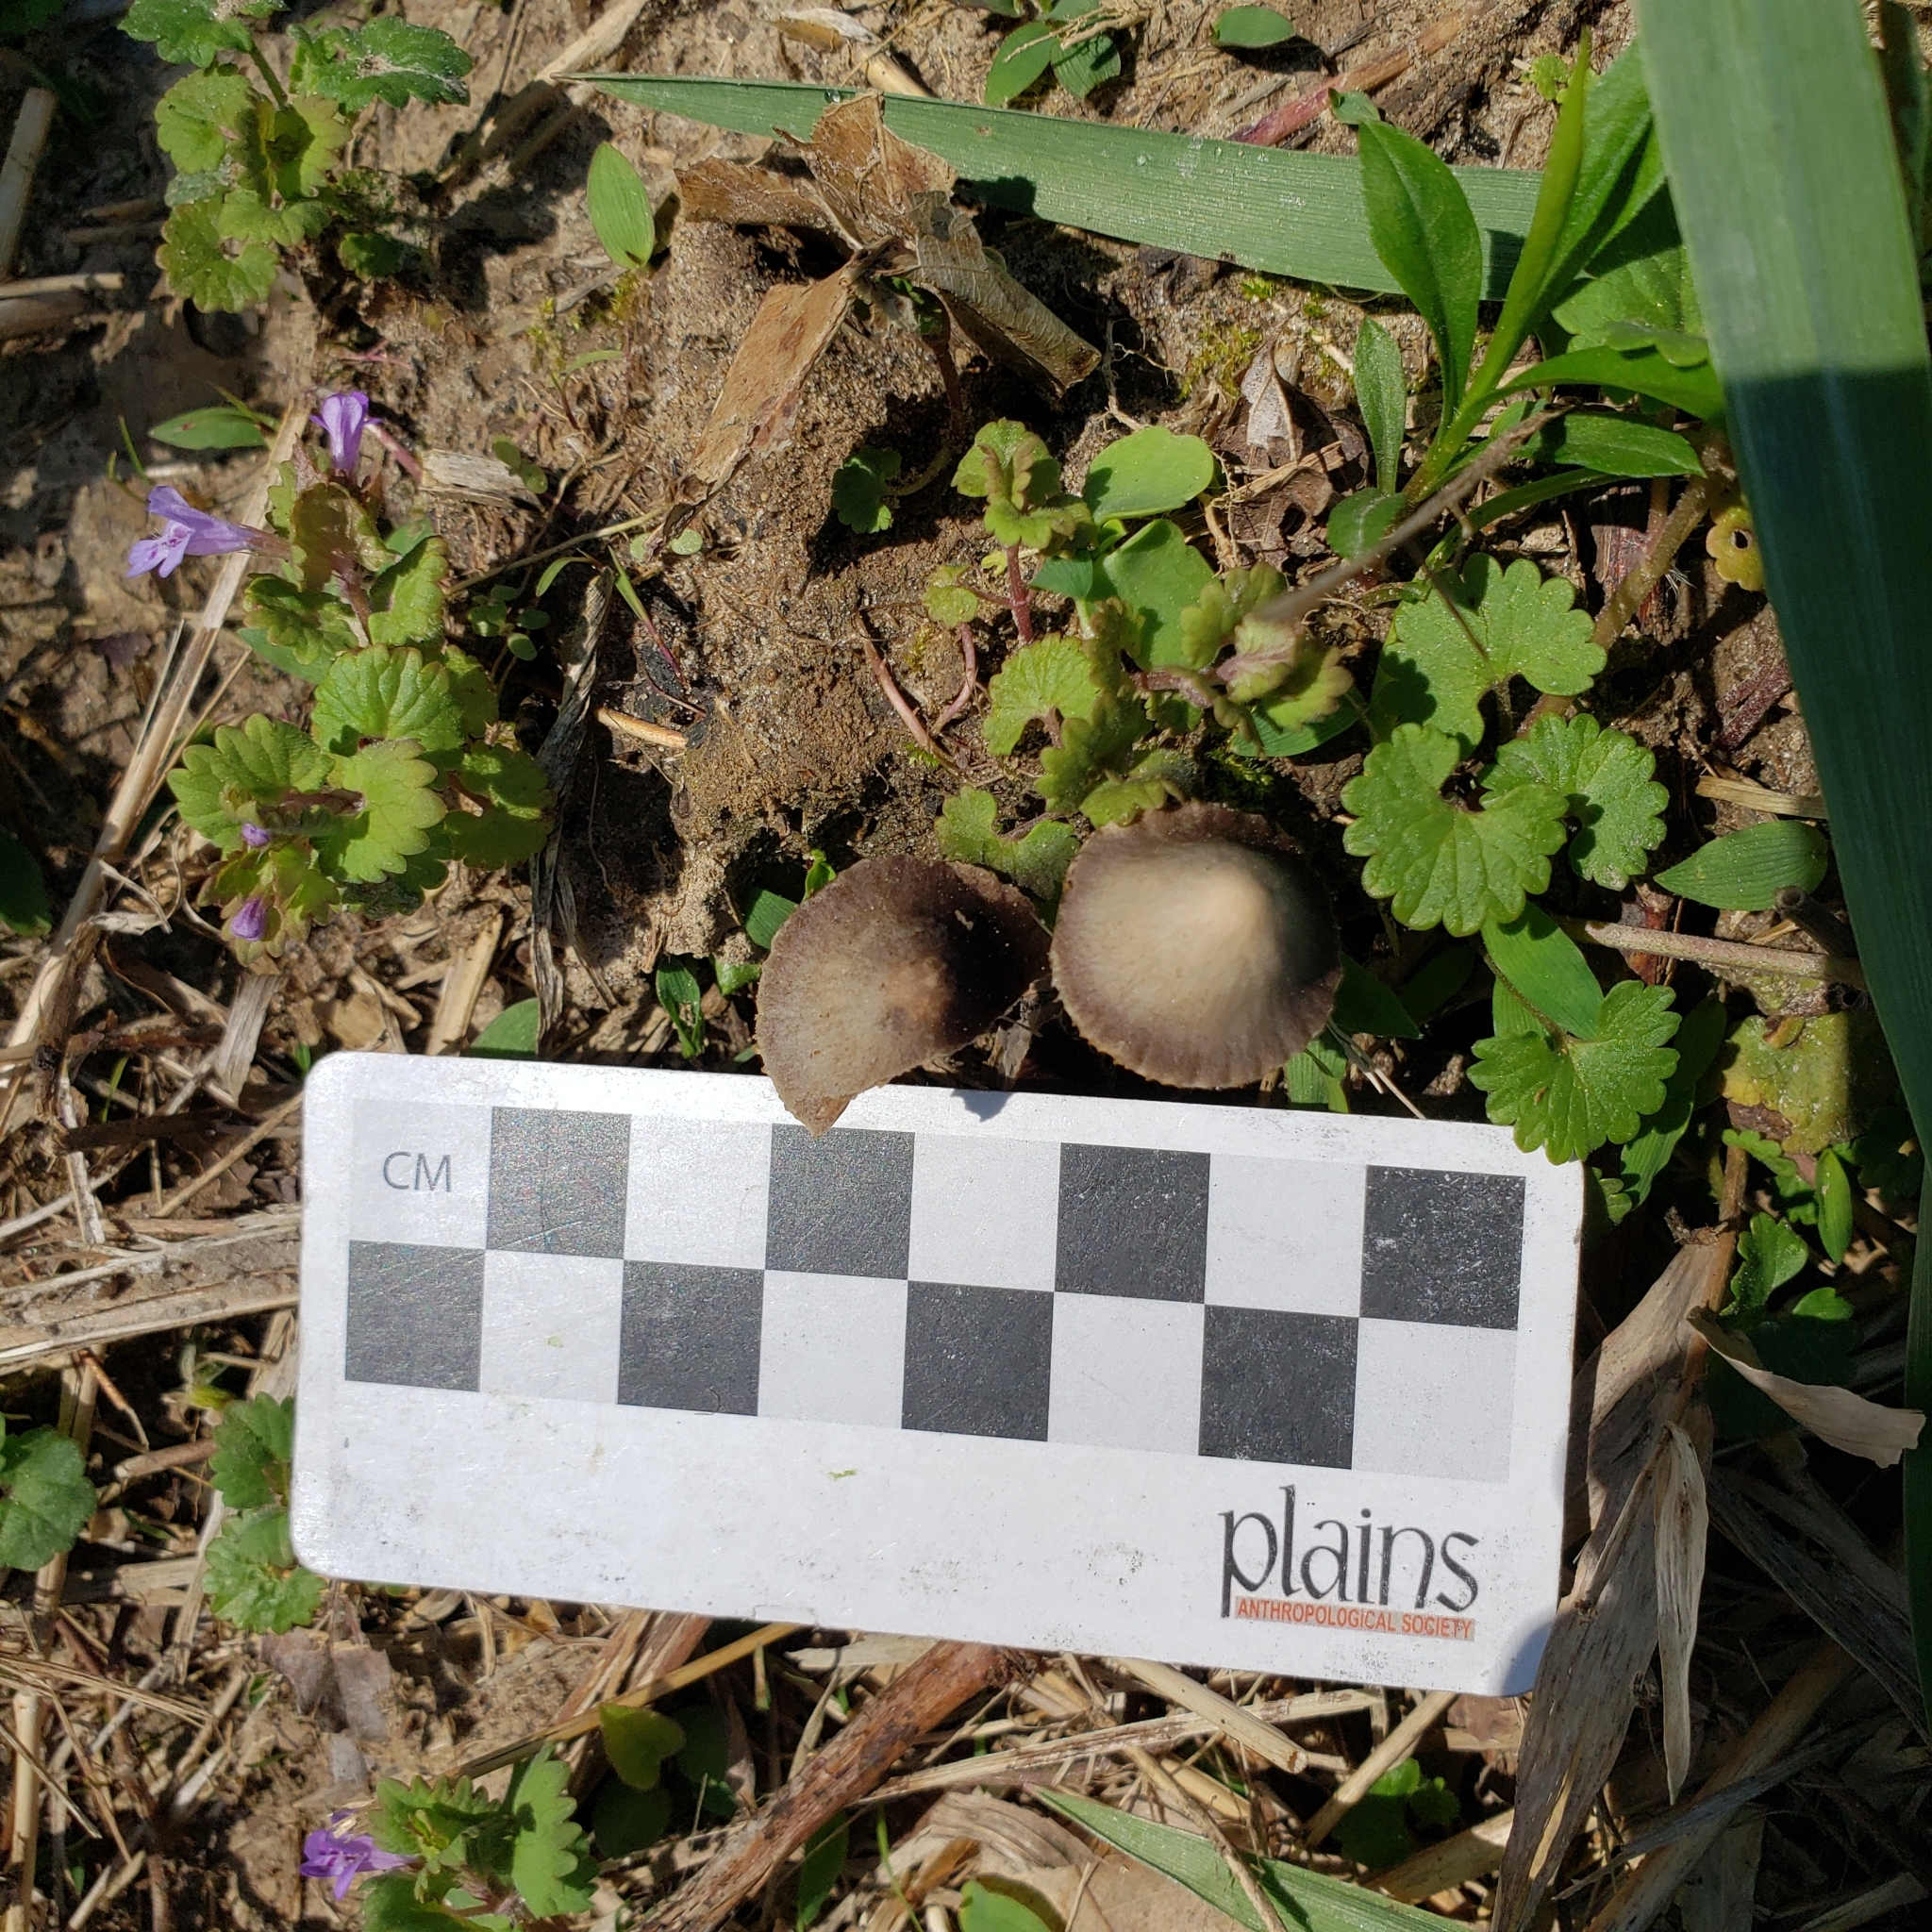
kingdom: Fungi
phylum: Basidiomycota
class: Agaricomycetes
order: Agaricales
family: Bolbitiaceae
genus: Panaeolina
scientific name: Panaeolina foenisecii
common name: Brown hay cap
